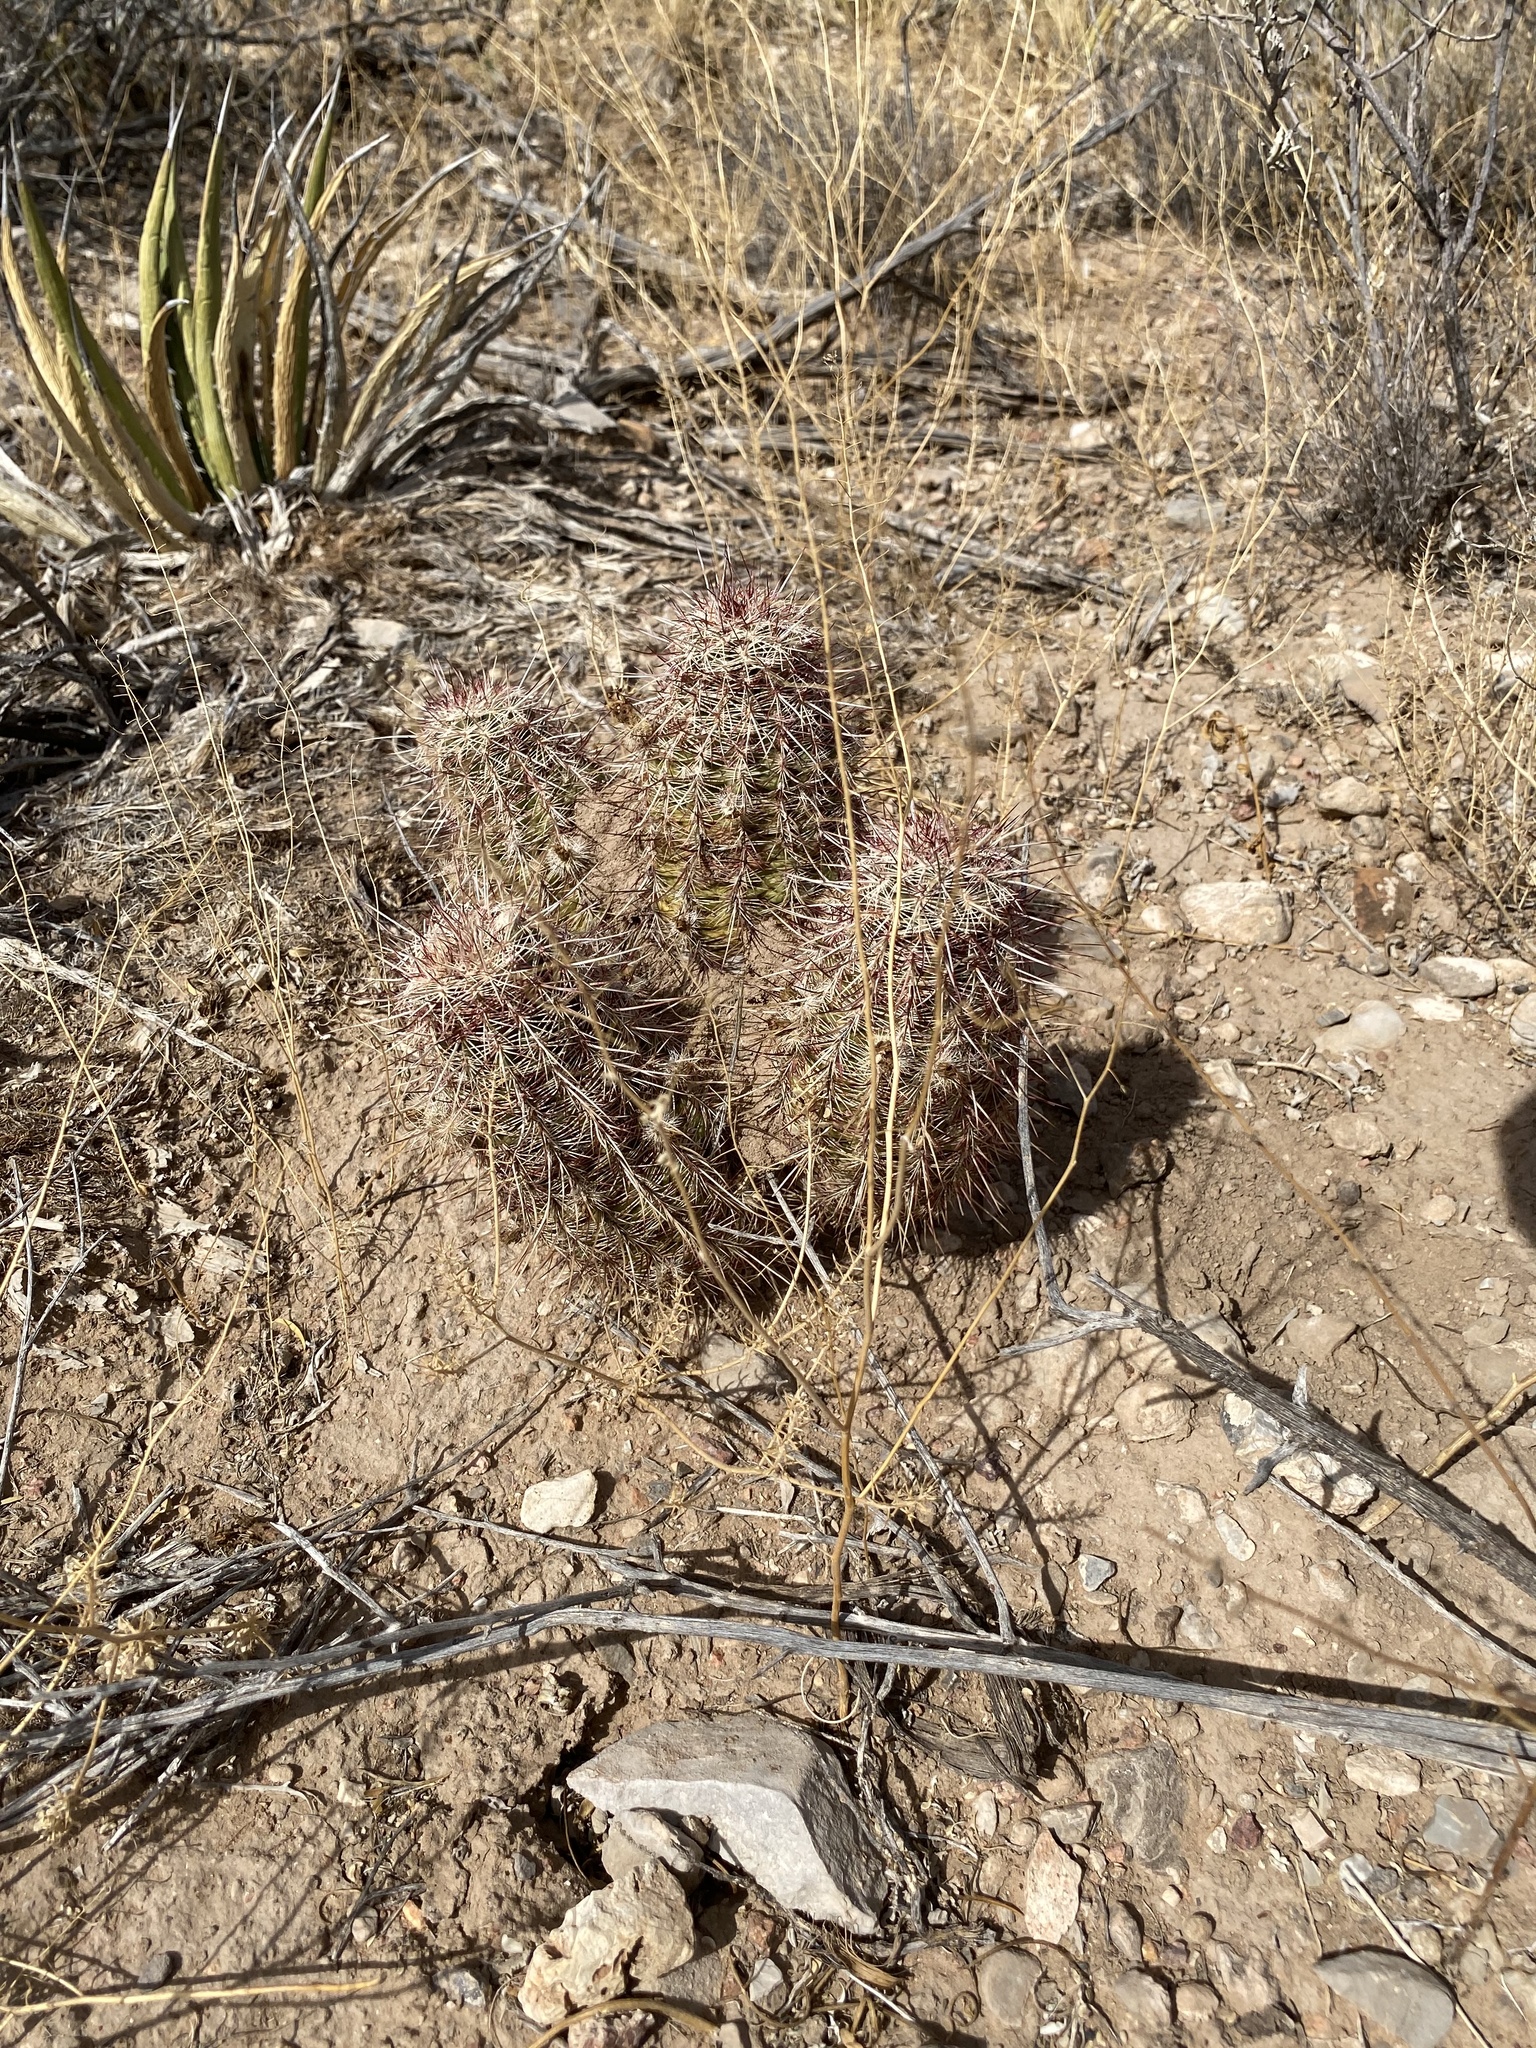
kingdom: Plantae
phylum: Tracheophyta
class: Magnoliopsida
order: Caryophyllales
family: Cactaceae
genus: Echinocereus
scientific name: Echinocereus viridiflorus
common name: Nylon hedgehog cactus
